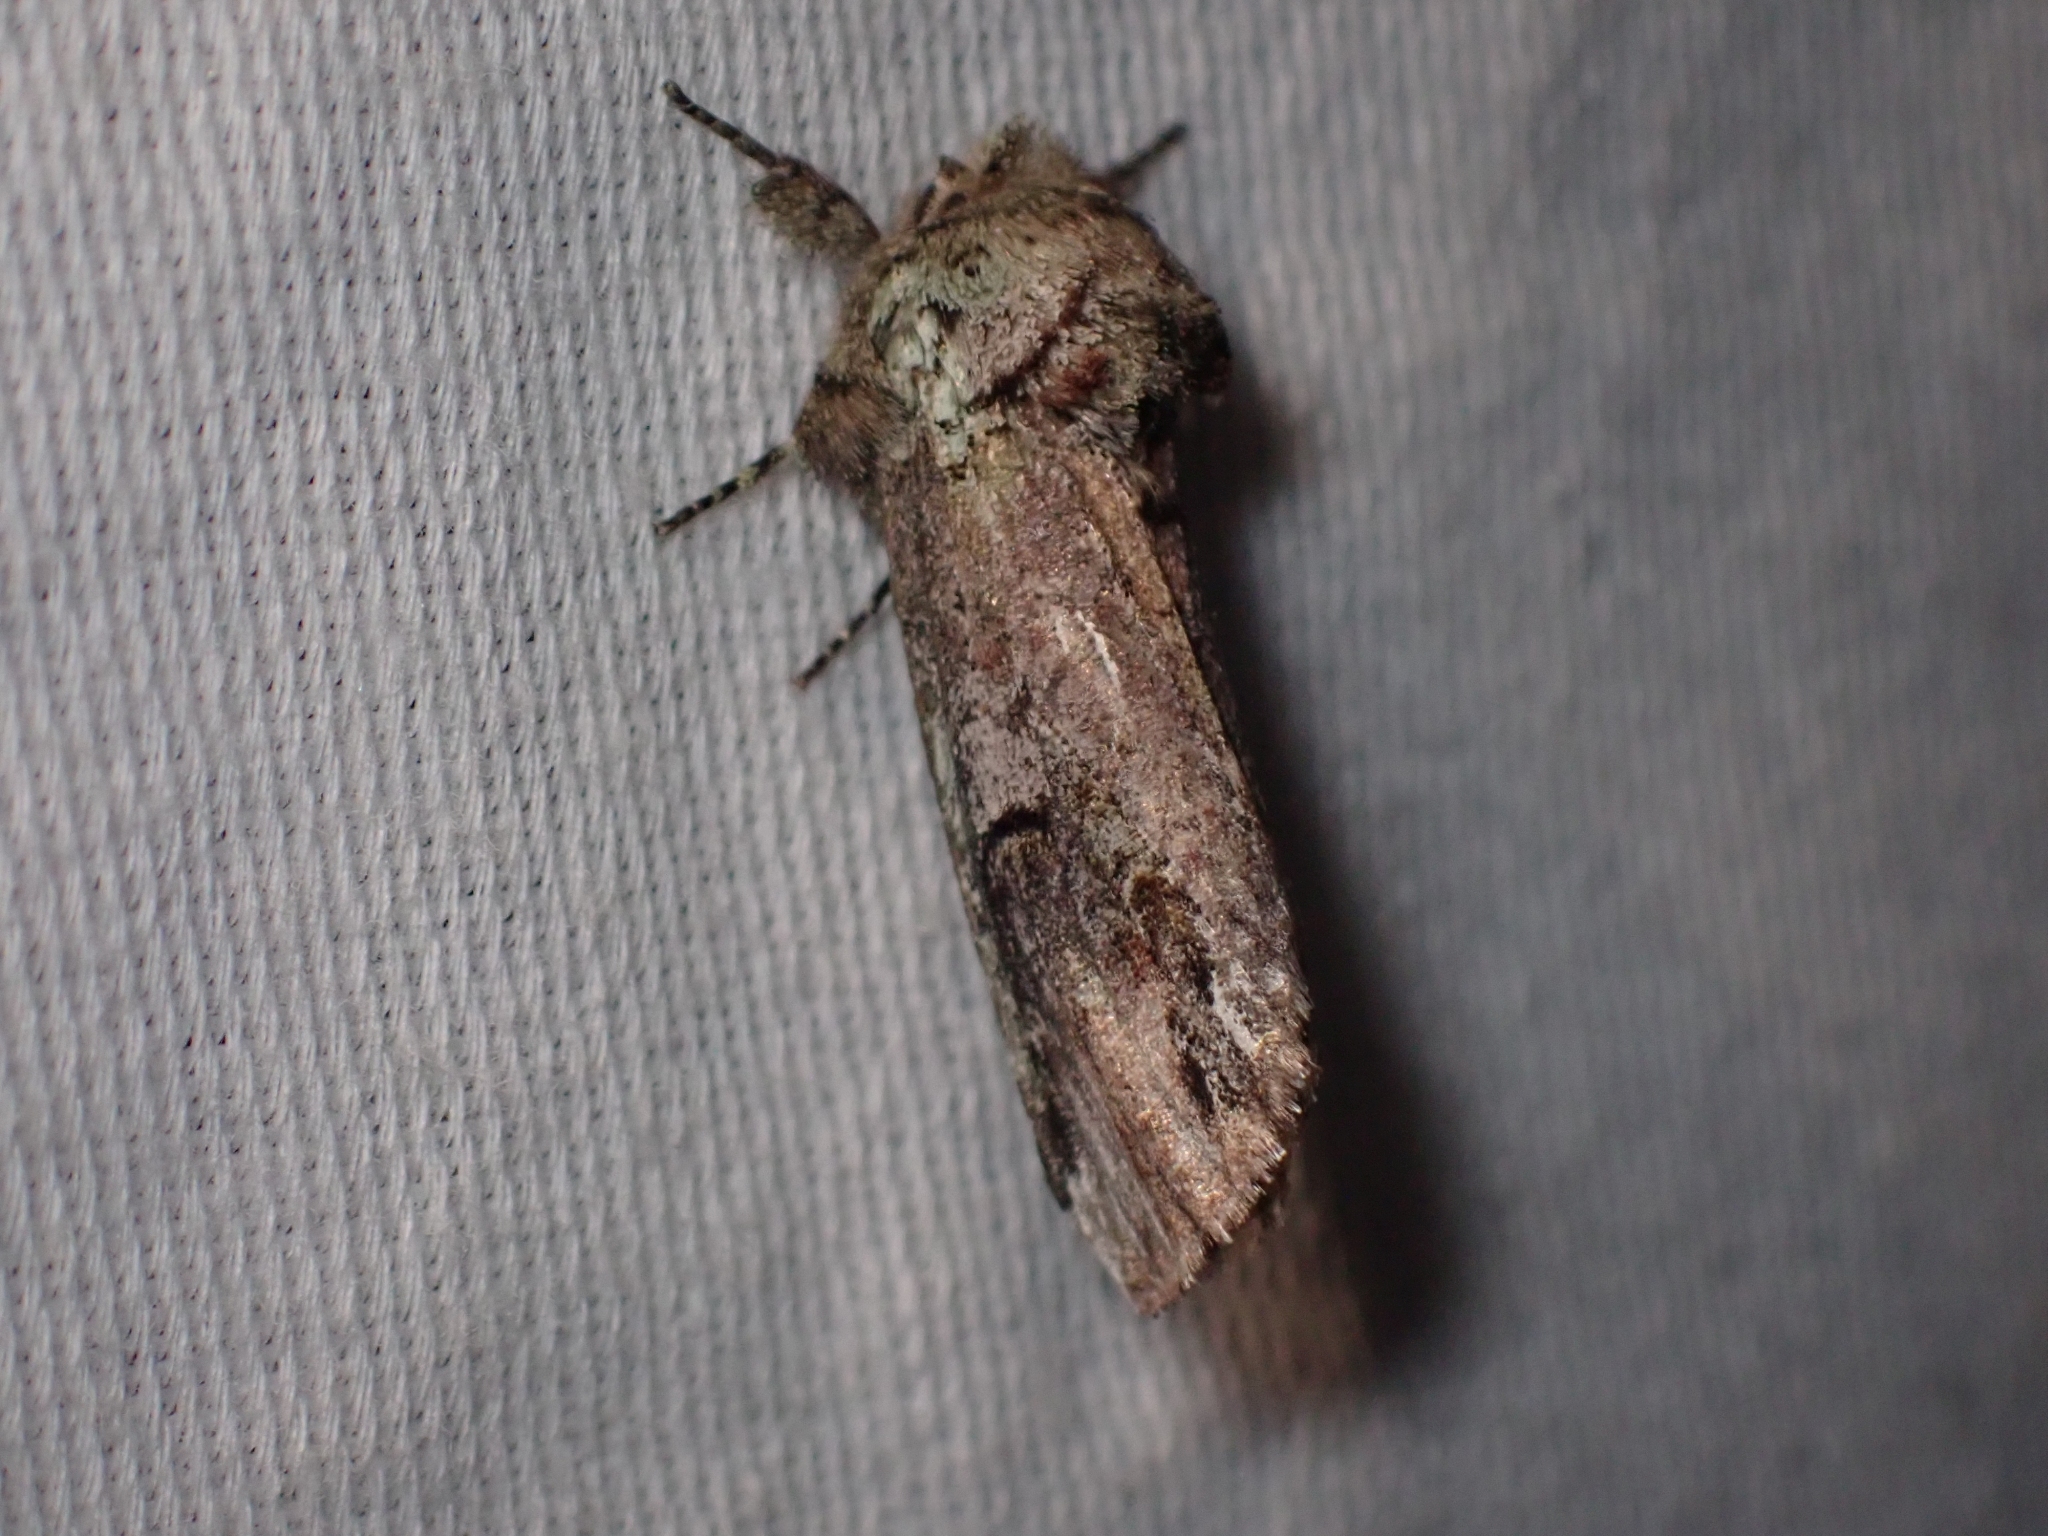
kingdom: Animalia
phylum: Arthropoda
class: Insecta
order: Lepidoptera
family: Notodontidae
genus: Schizura
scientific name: Schizura
